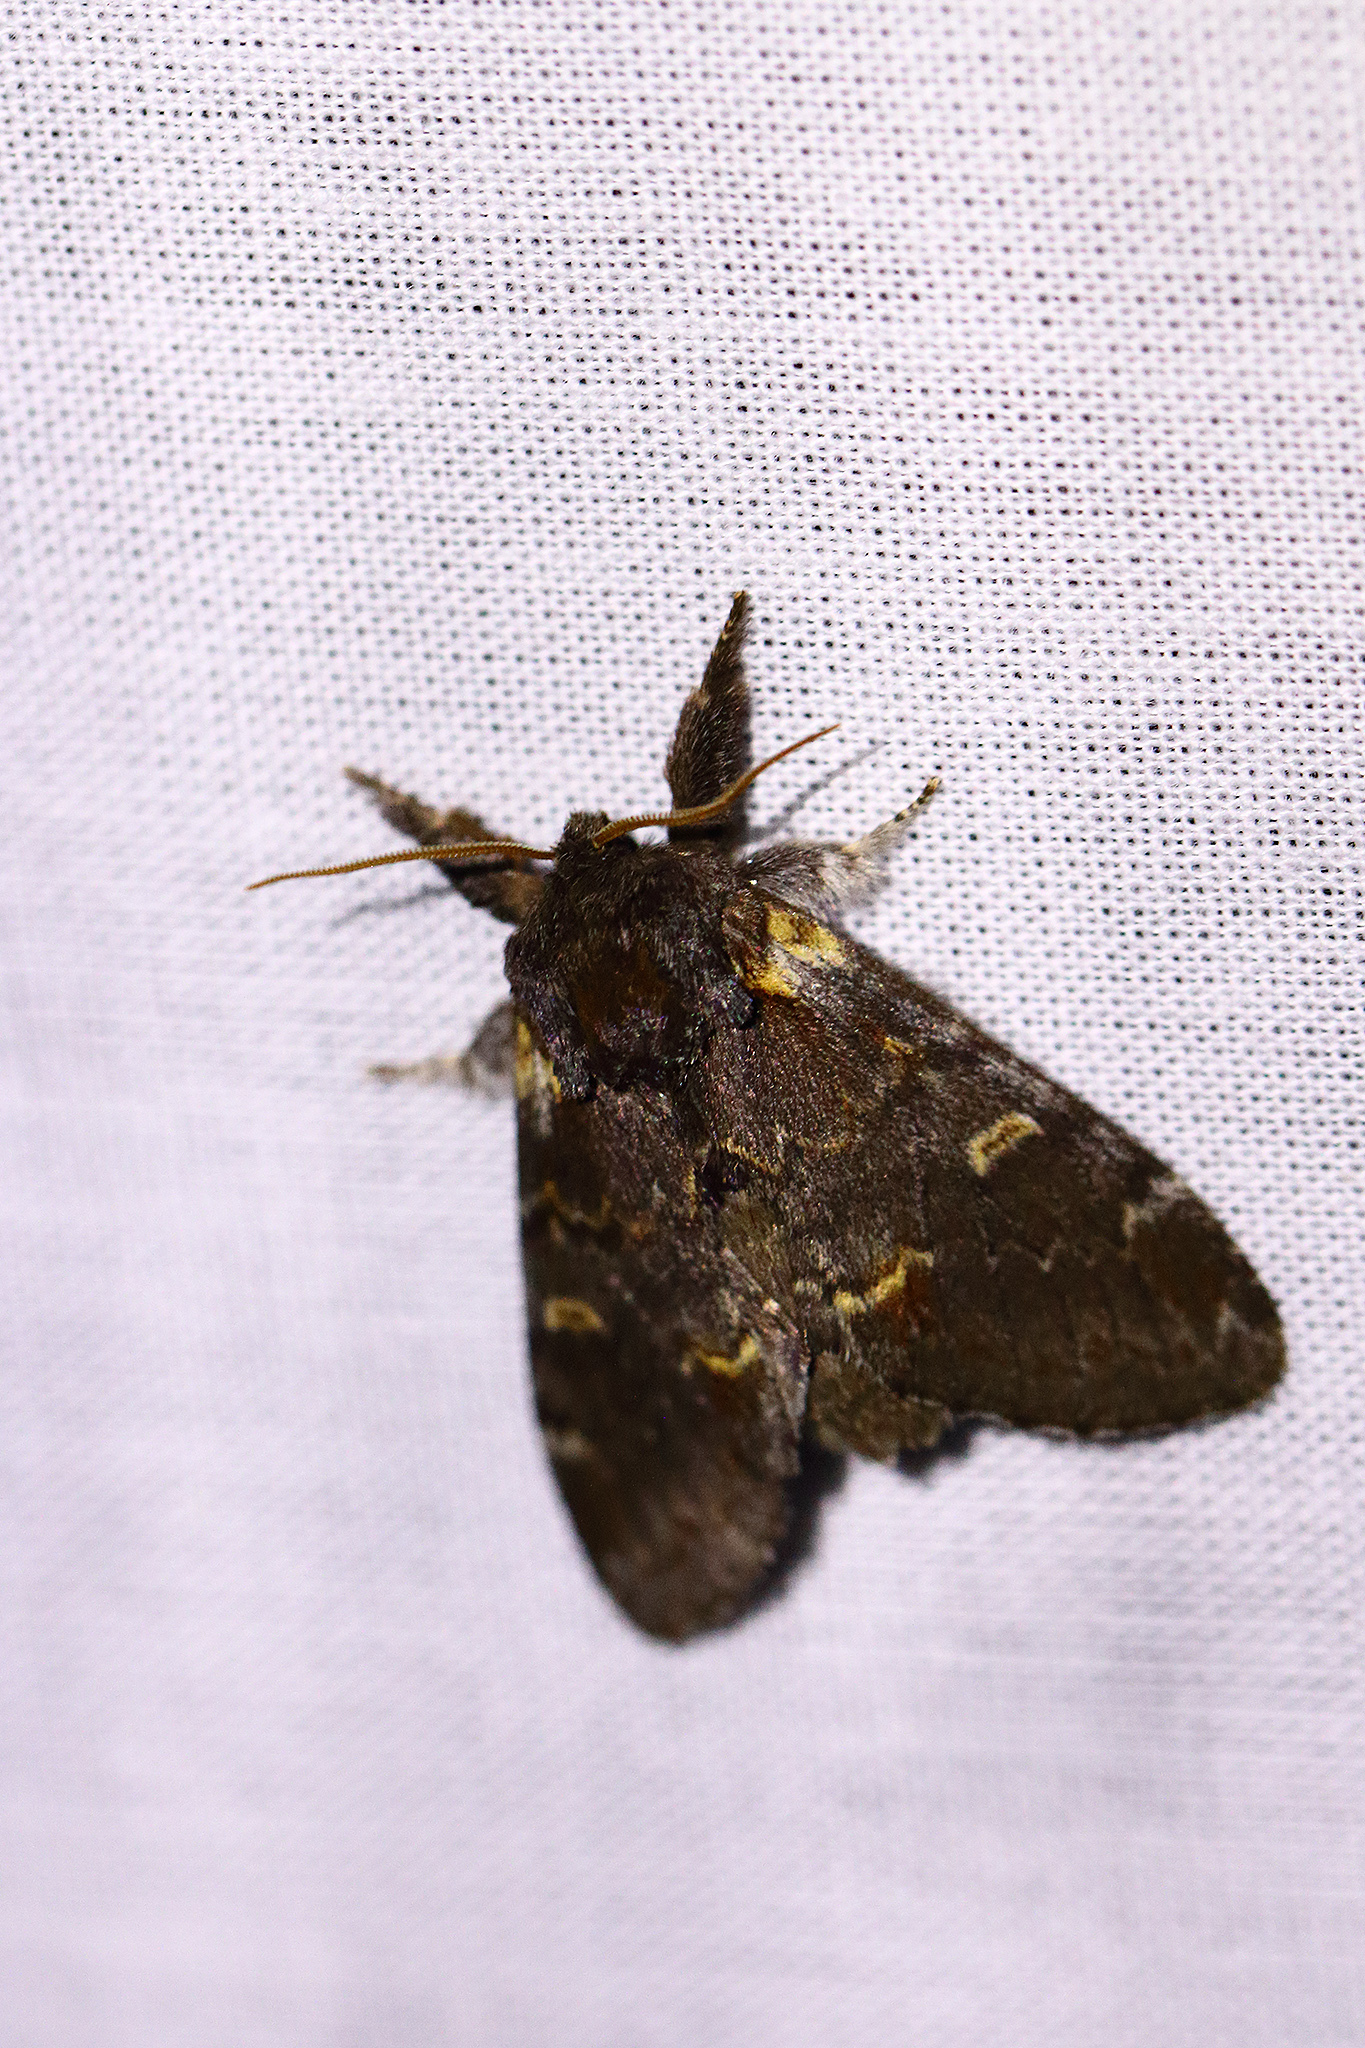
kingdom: Animalia
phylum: Arthropoda
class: Insecta
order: Lepidoptera
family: Notodontidae
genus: Notodonta
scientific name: Notodonta dromedarius
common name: Iron prominent
